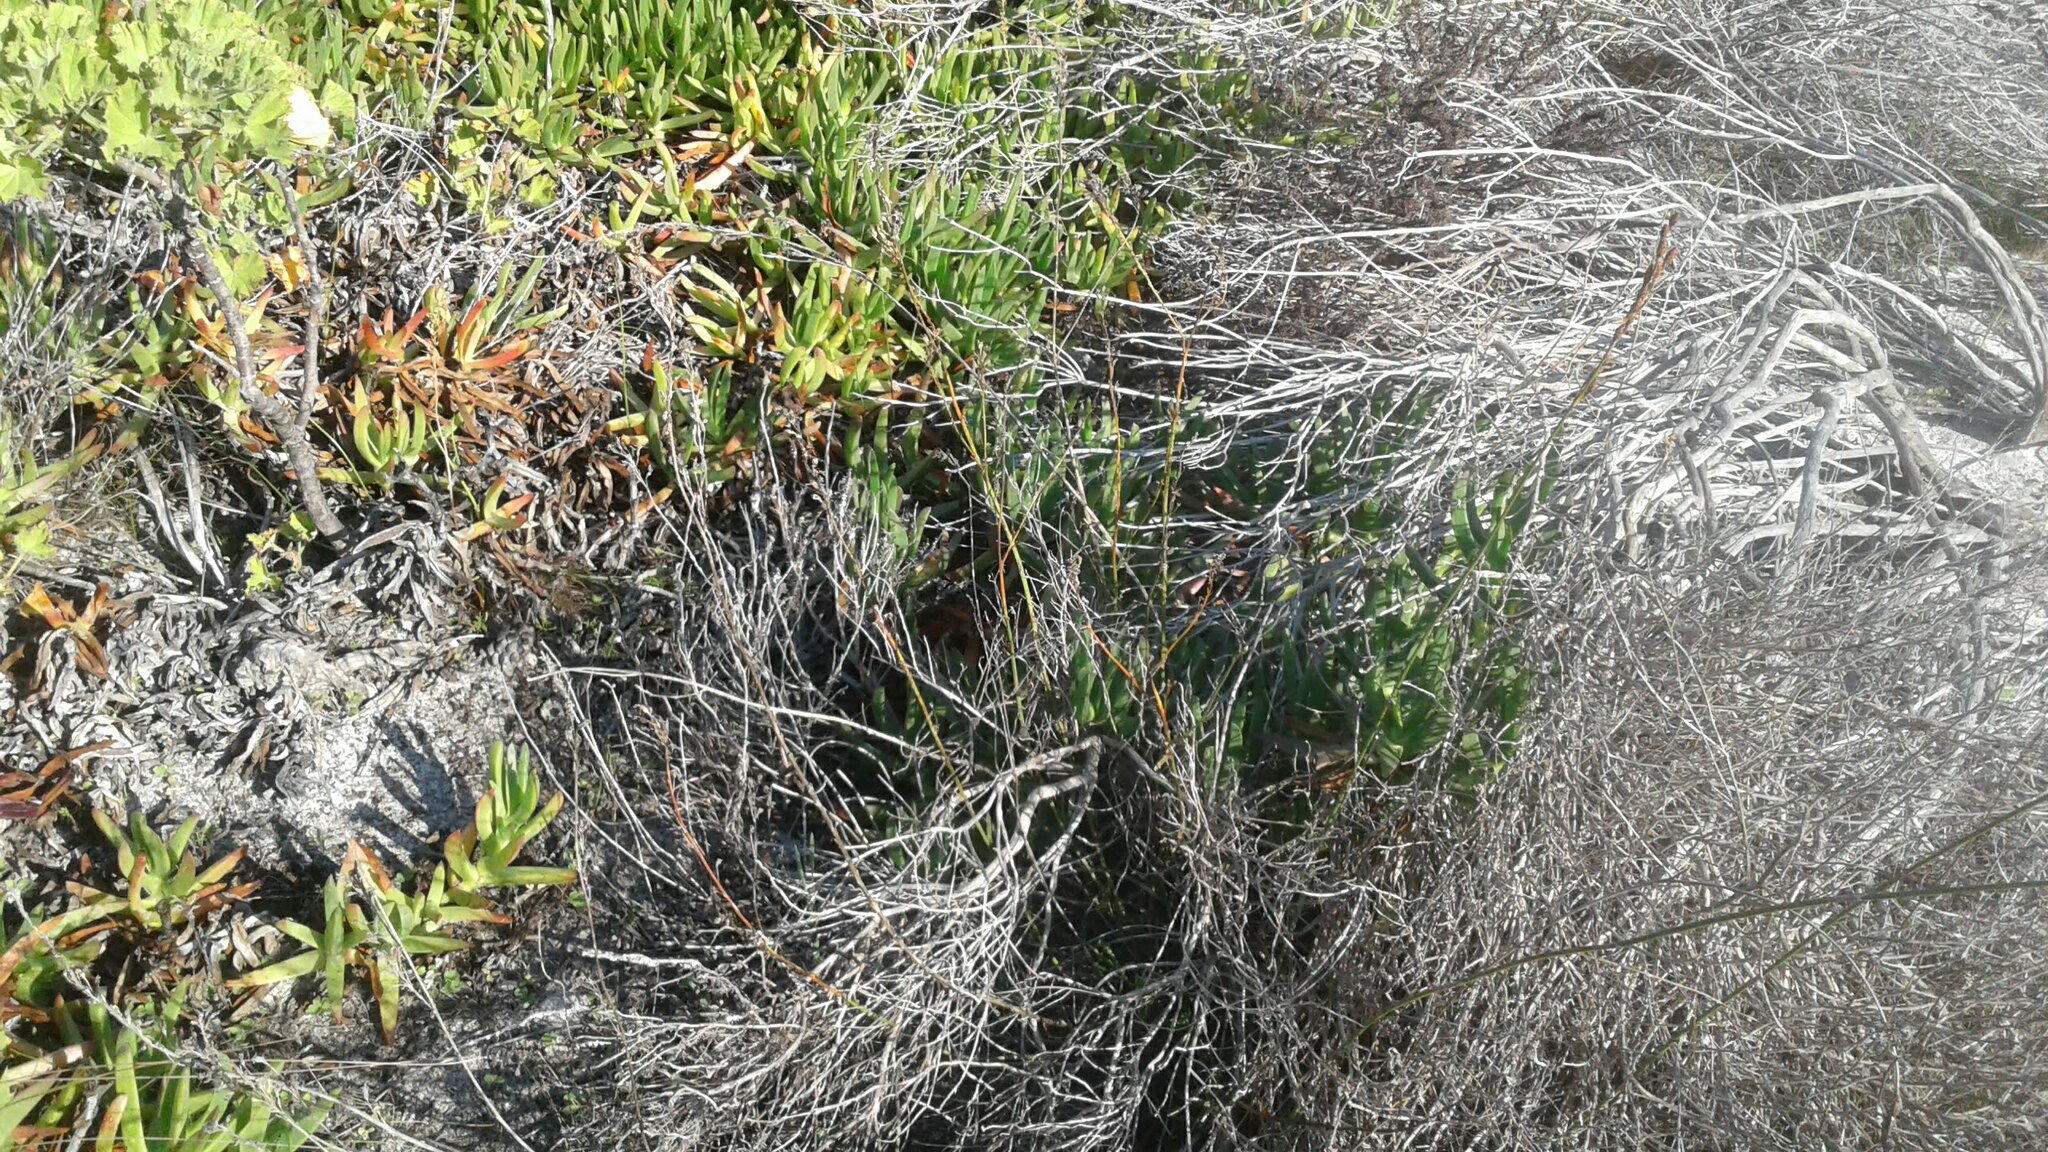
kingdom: Plantae
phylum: Tracheophyta
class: Magnoliopsida
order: Asterales
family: Campanulaceae
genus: Lobelia
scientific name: Lobelia coronopifolia
